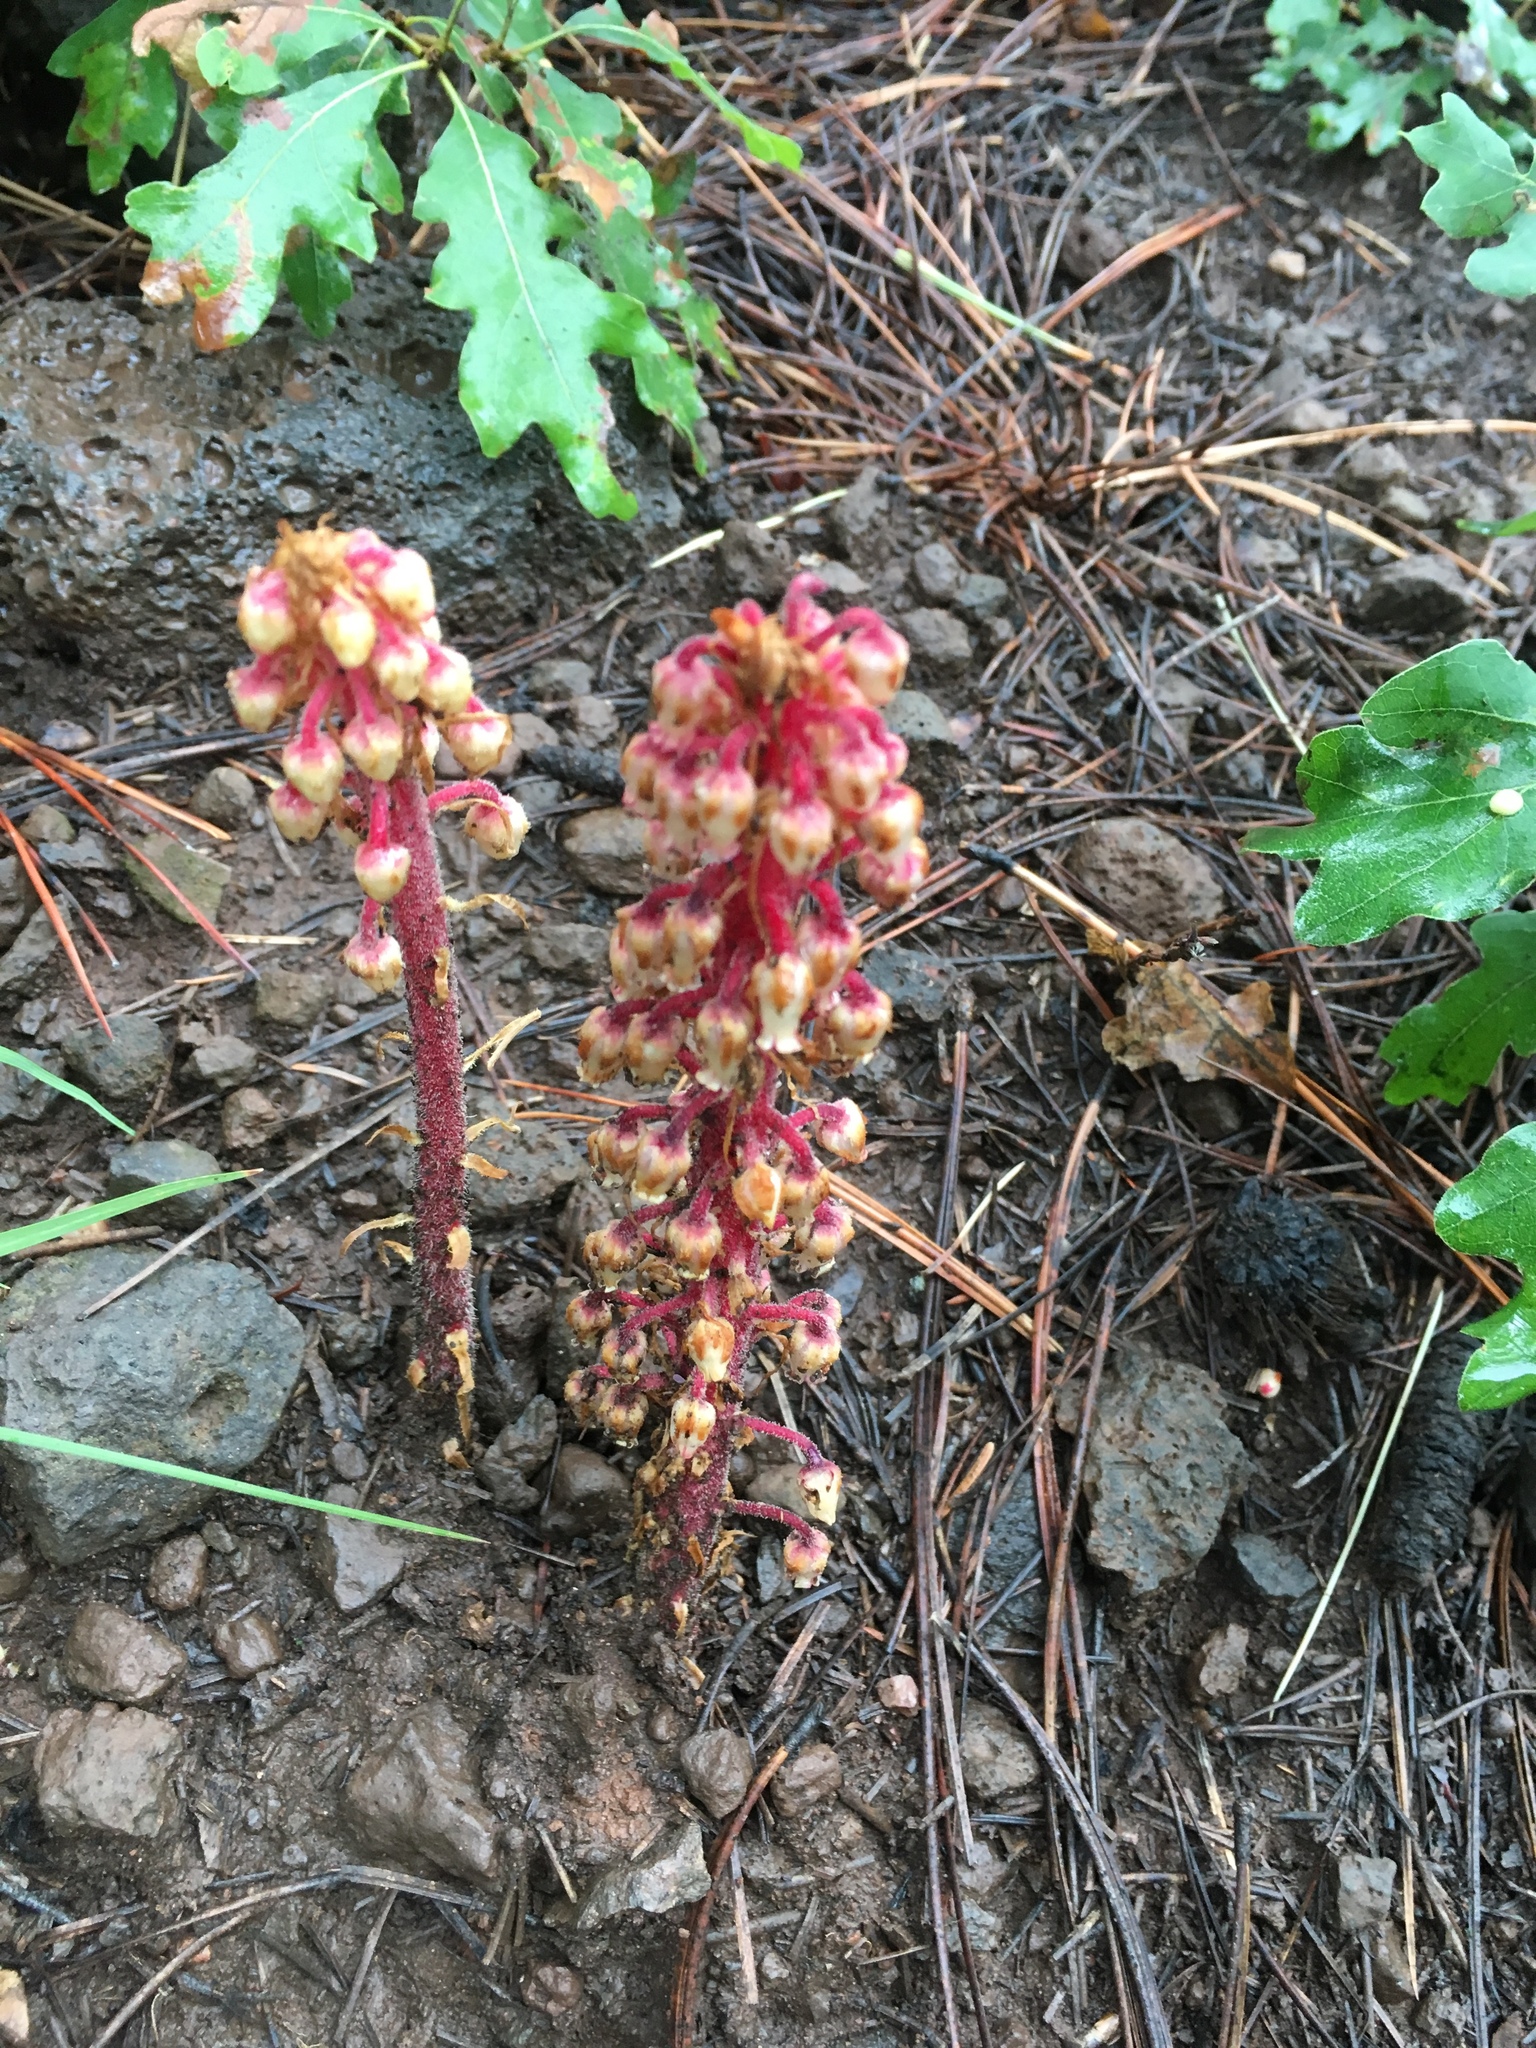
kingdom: Plantae
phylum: Tracheophyta
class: Magnoliopsida
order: Ericales
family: Ericaceae
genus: Pterospora
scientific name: Pterospora andromedea
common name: Giant bird's-nest
